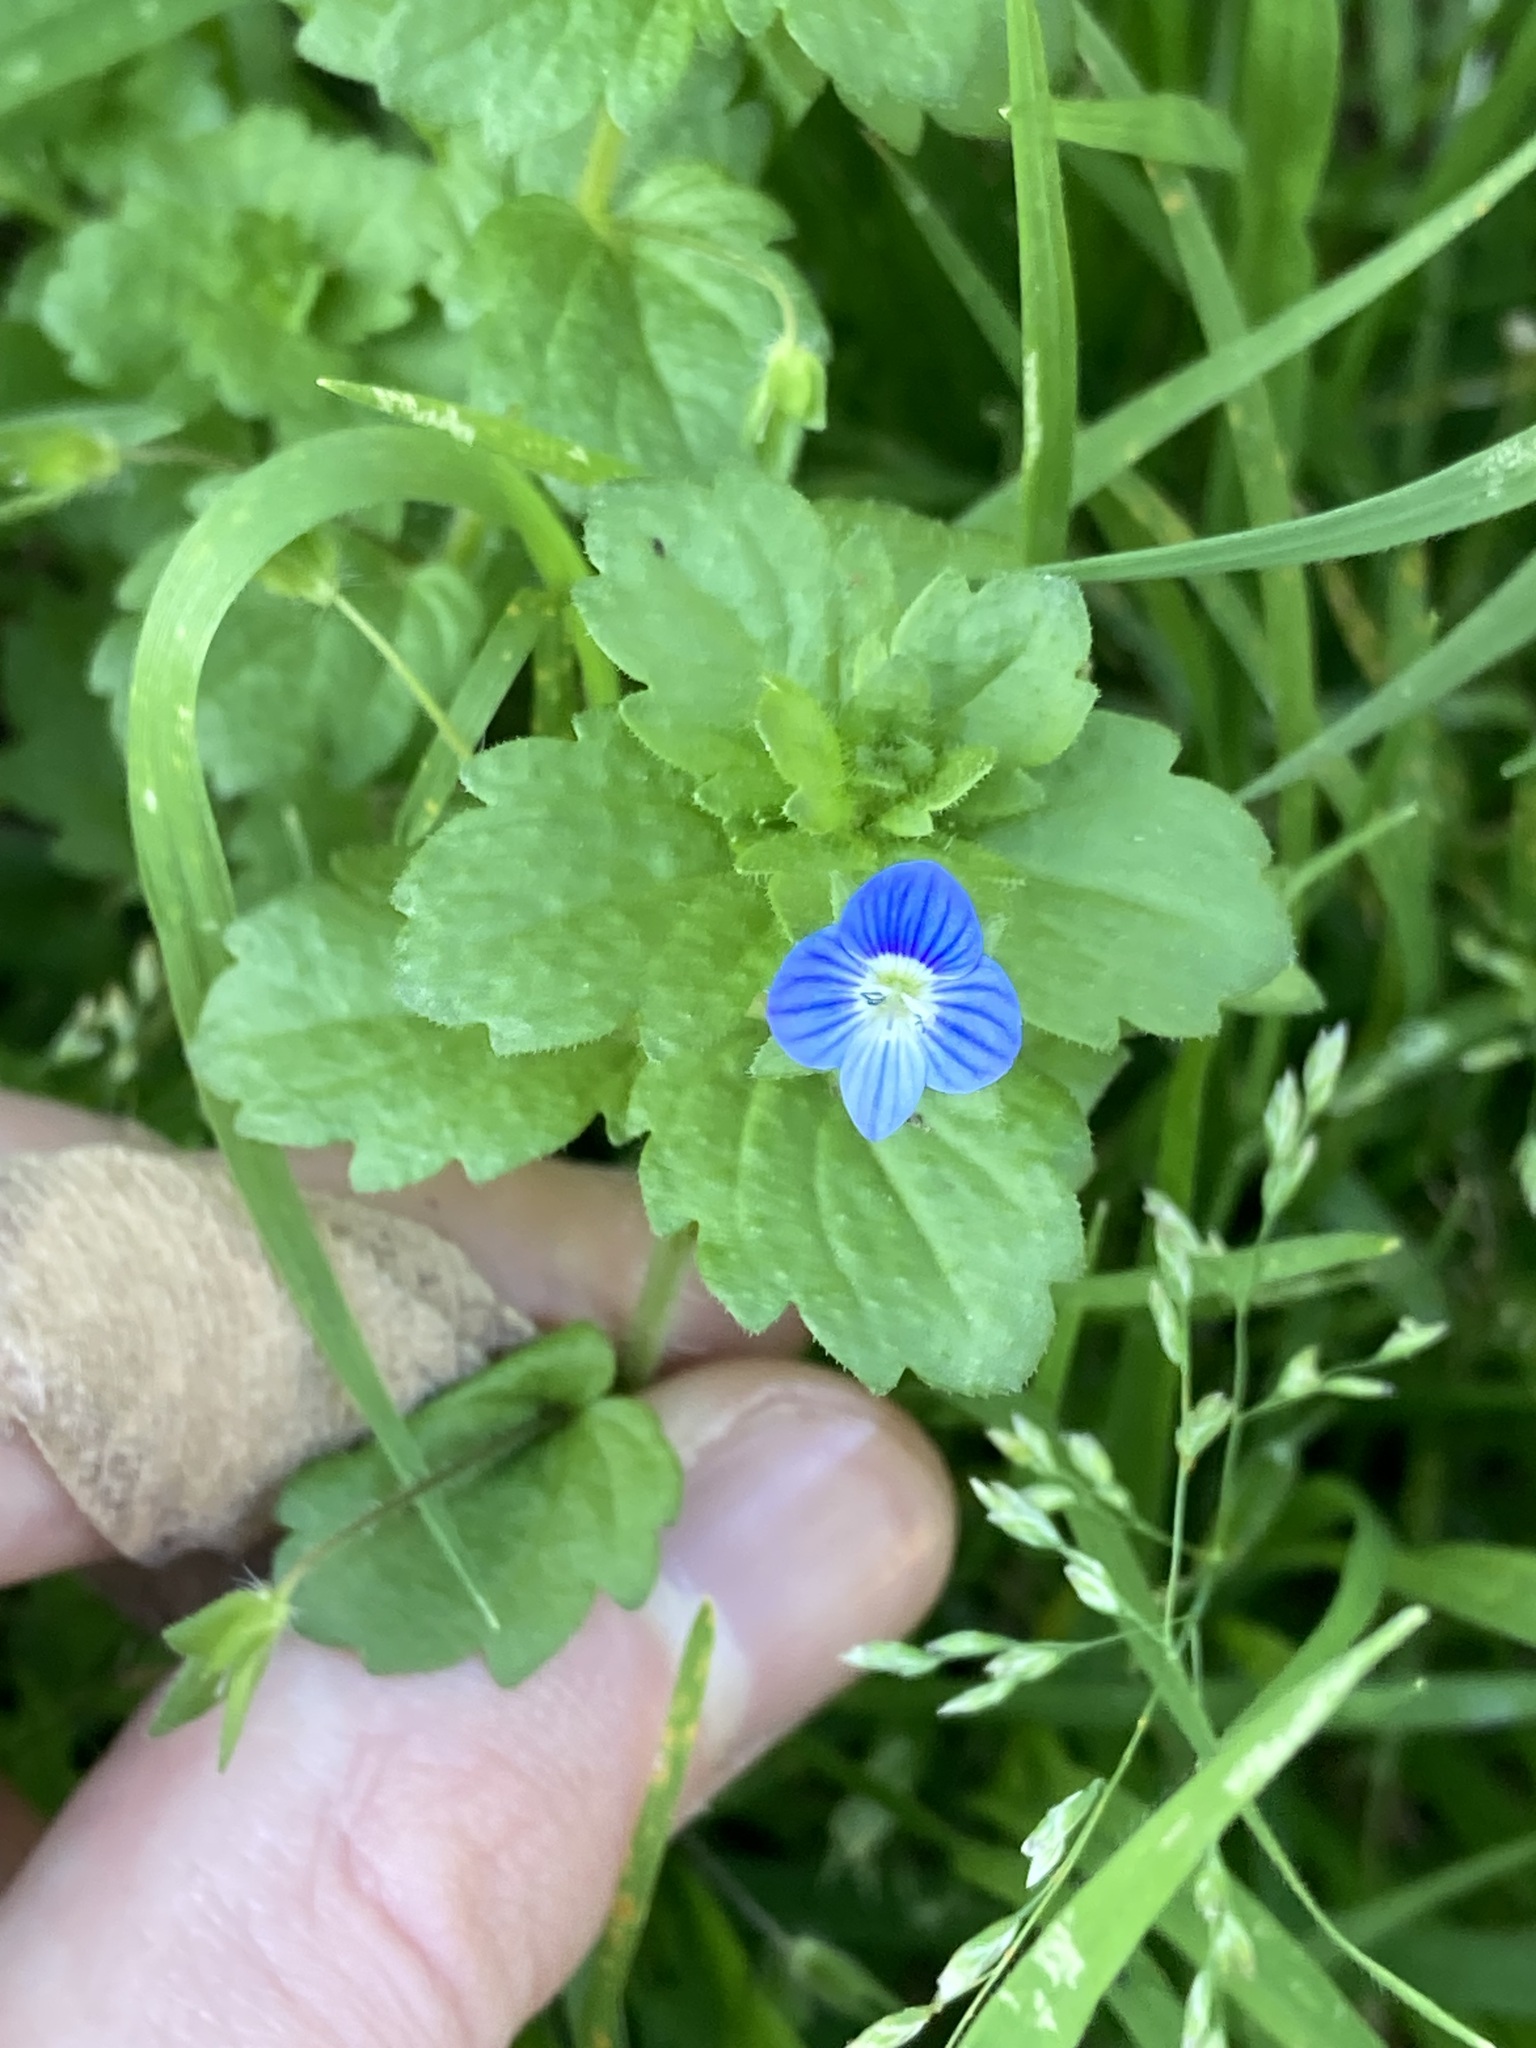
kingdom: Plantae
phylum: Tracheophyta
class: Magnoliopsida
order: Lamiales
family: Plantaginaceae
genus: Veronica
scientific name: Veronica persica
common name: Common field-speedwell
